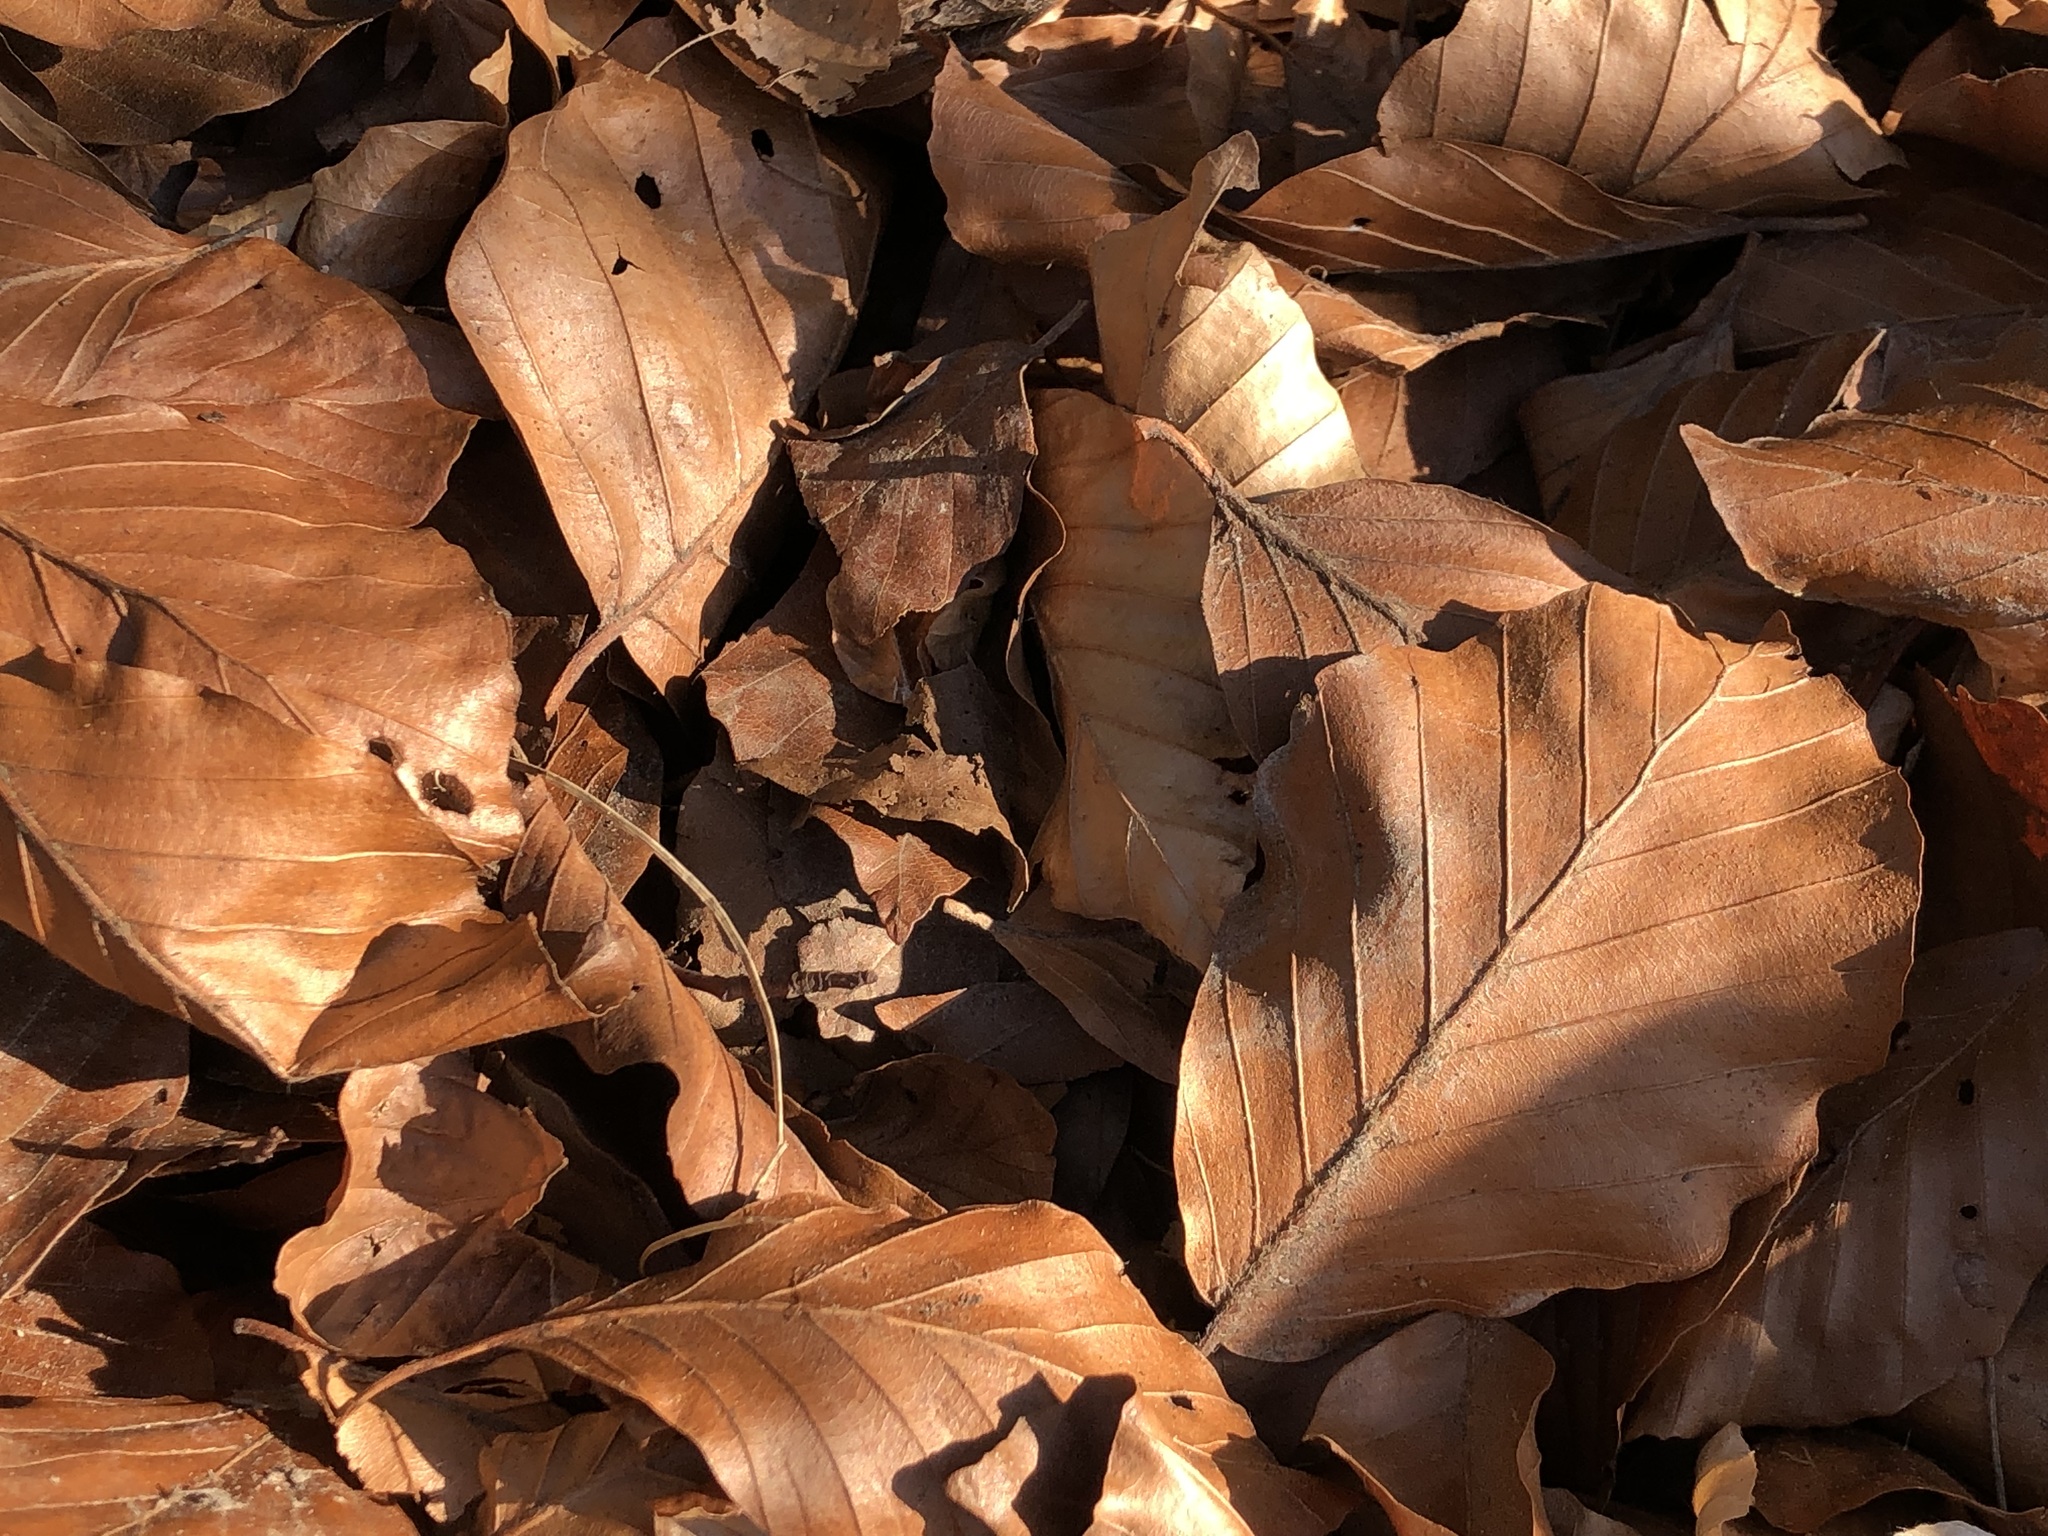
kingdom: Plantae
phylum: Tracheophyta
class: Magnoliopsida
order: Fagales
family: Fagaceae
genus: Fagus
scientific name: Fagus sylvatica
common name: Beech
